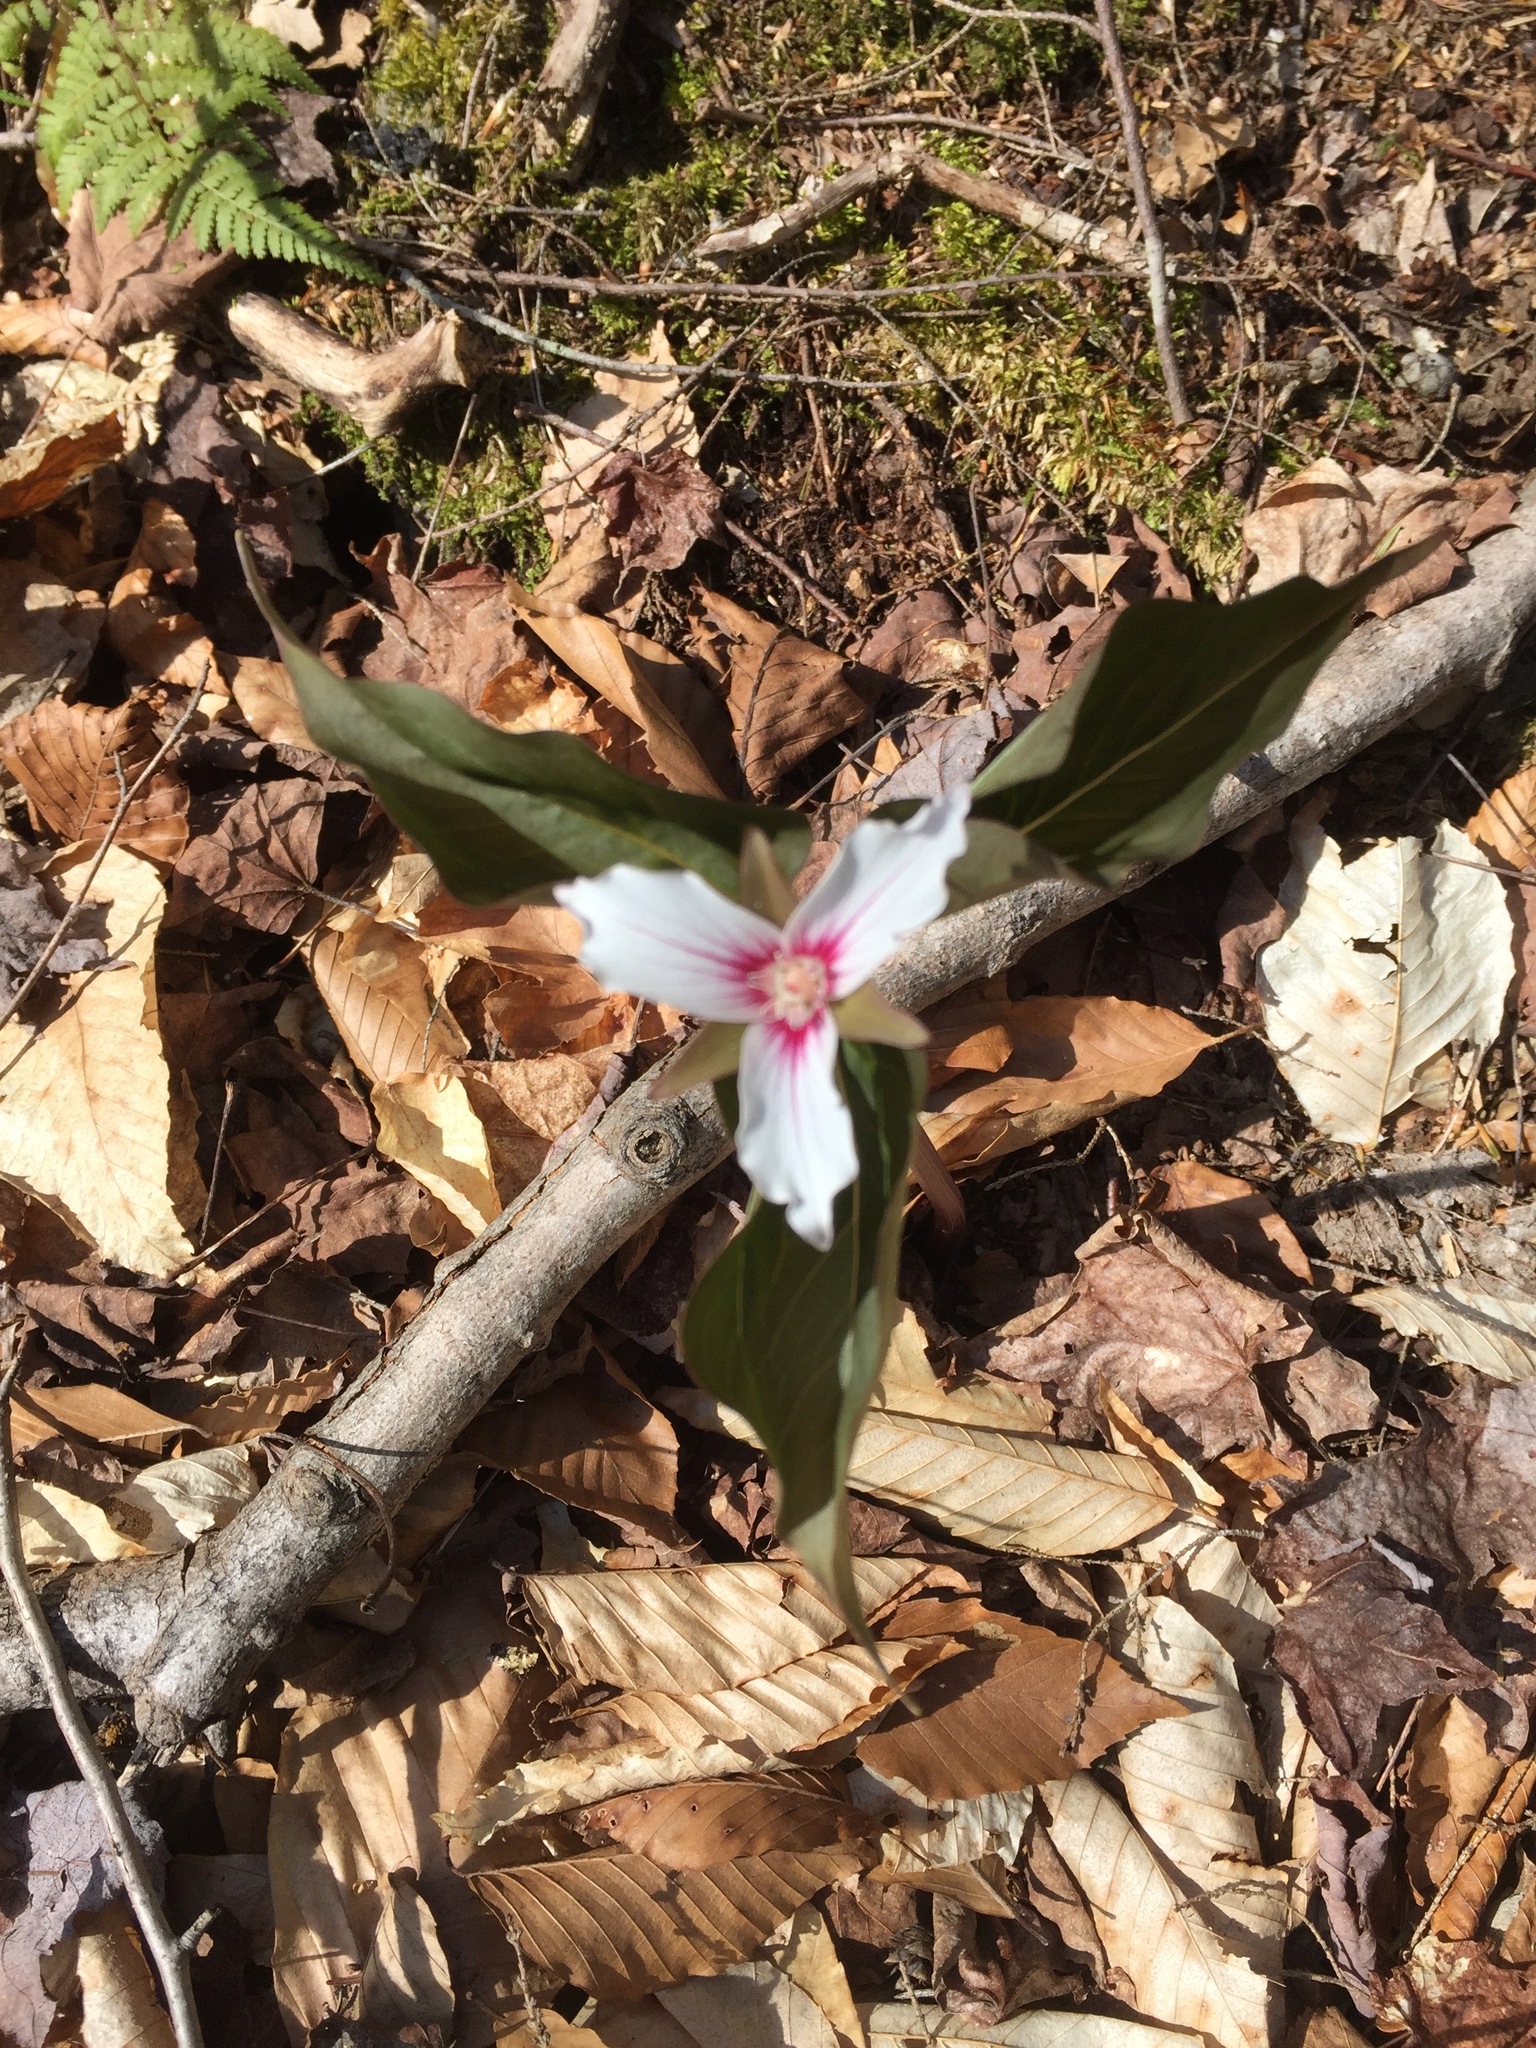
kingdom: Plantae
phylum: Tracheophyta
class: Liliopsida
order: Liliales
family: Melanthiaceae
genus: Trillium
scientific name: Trillium undulatum
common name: Paint trillium
